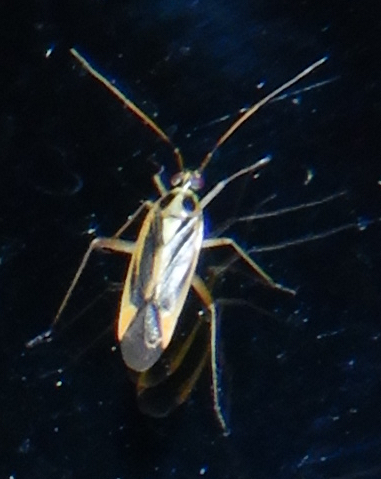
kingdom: Animalia
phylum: Arthropoda
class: Insecta
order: Hemiptera
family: Miridae
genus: Stenotus
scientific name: Stenotus binotatus
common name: Plant bug
